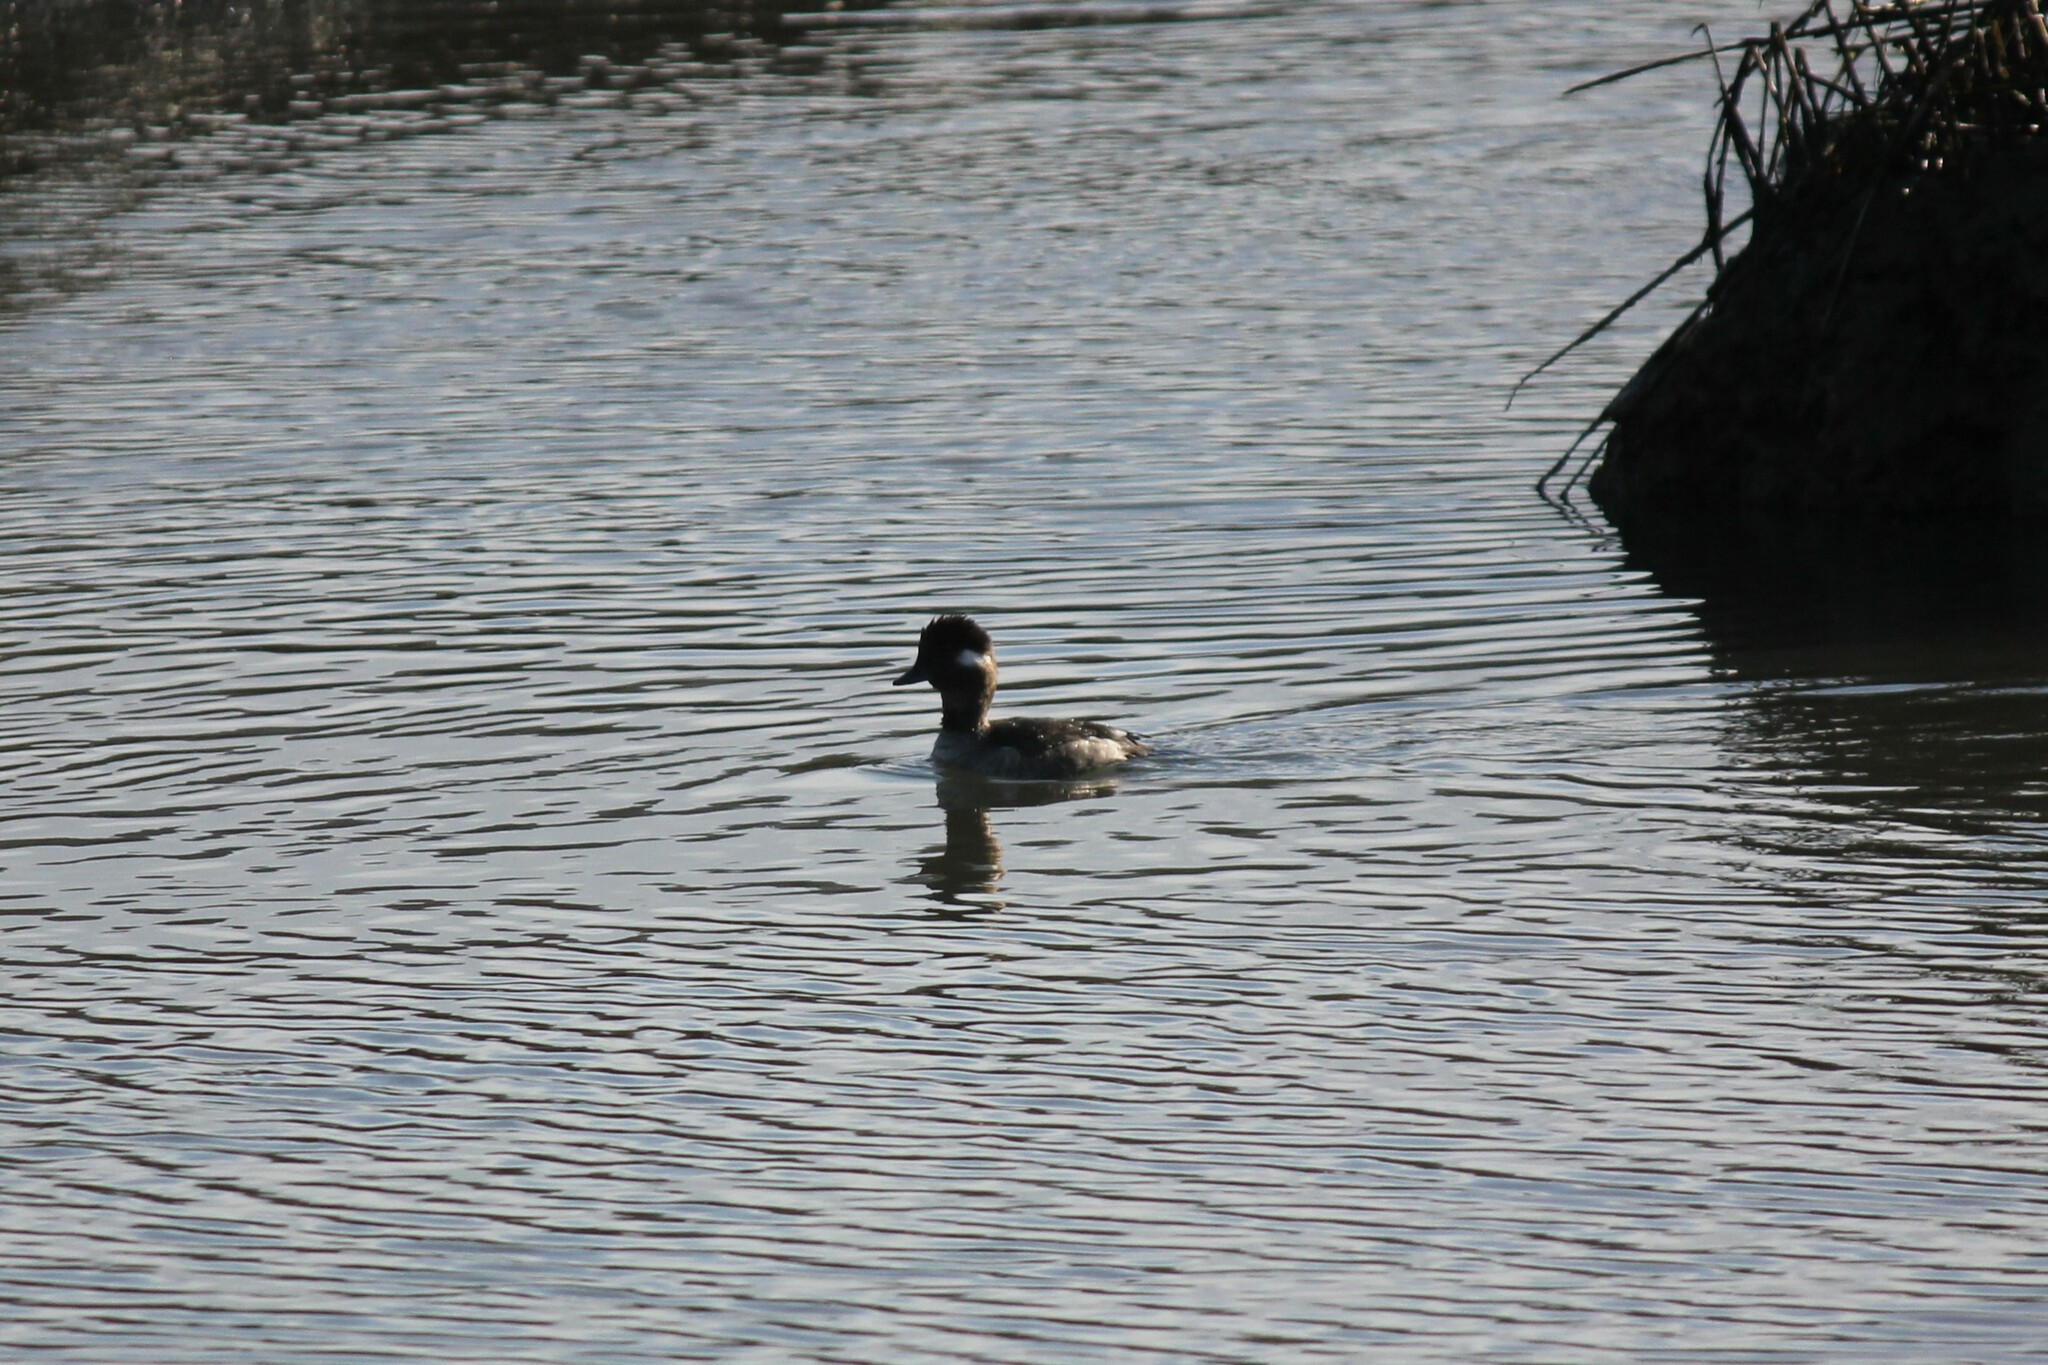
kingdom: Animalia
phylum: Chordata
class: Aves
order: Anseriformes
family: Anatidae
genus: Bucephala
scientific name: Bucephala albeola
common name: Bufflehead
